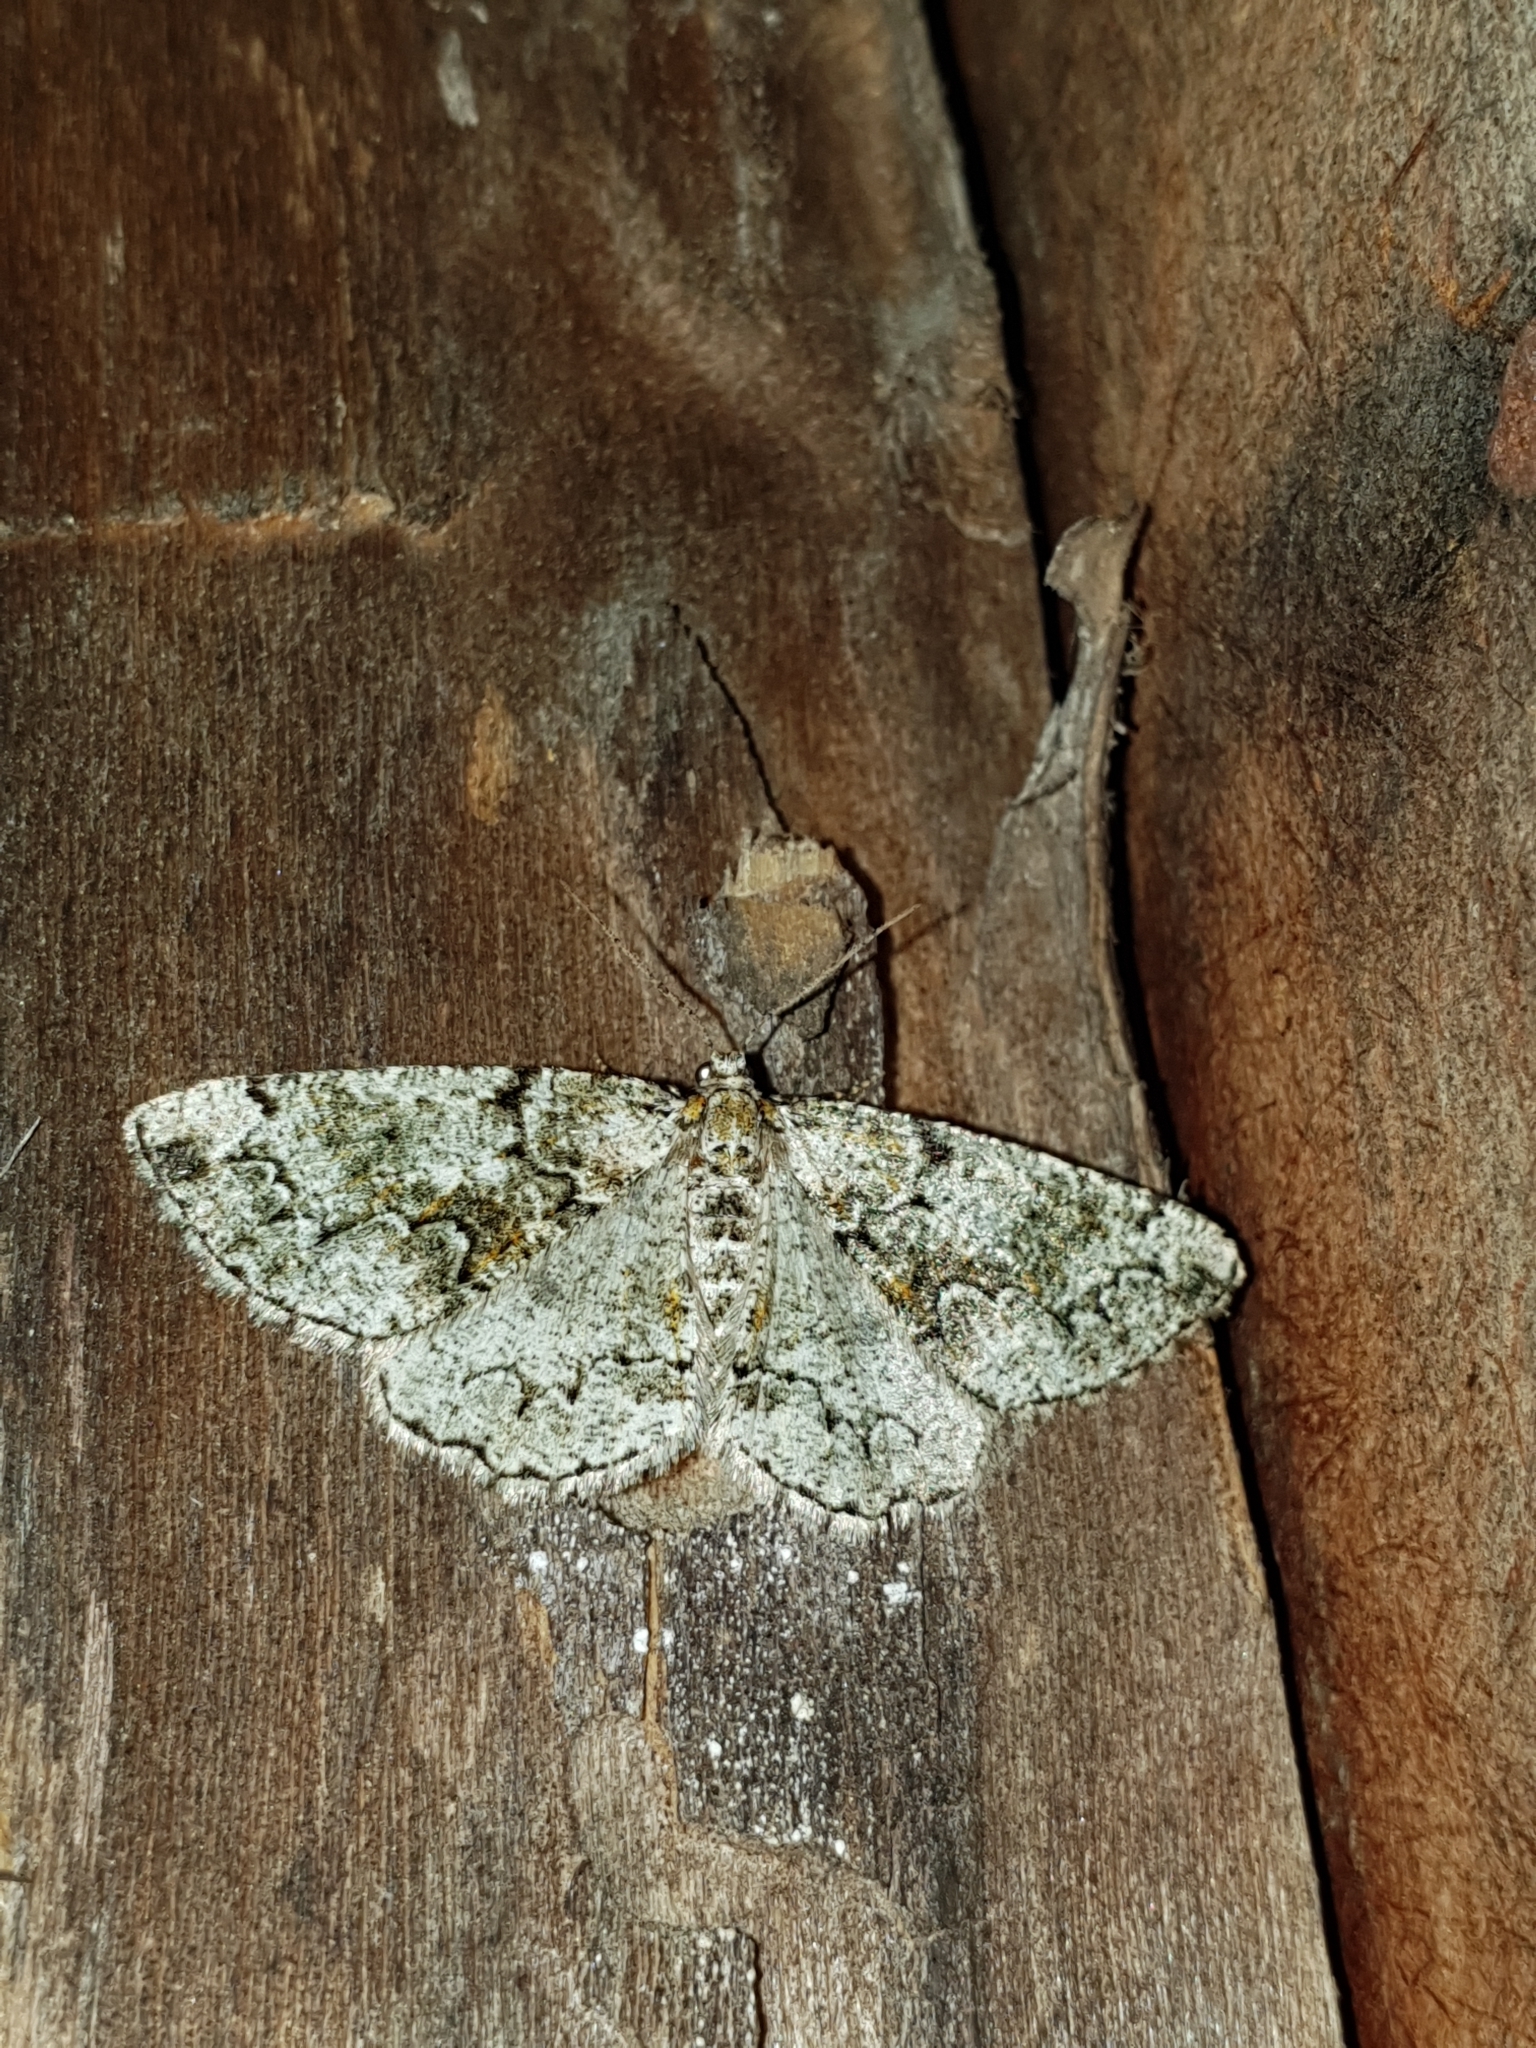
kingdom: Animalia
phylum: Arthropoda
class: Insecta
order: Lepidoptera
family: Geometridae
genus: Cleorodes
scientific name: Cleorodes lichenaria
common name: Brussels lace
